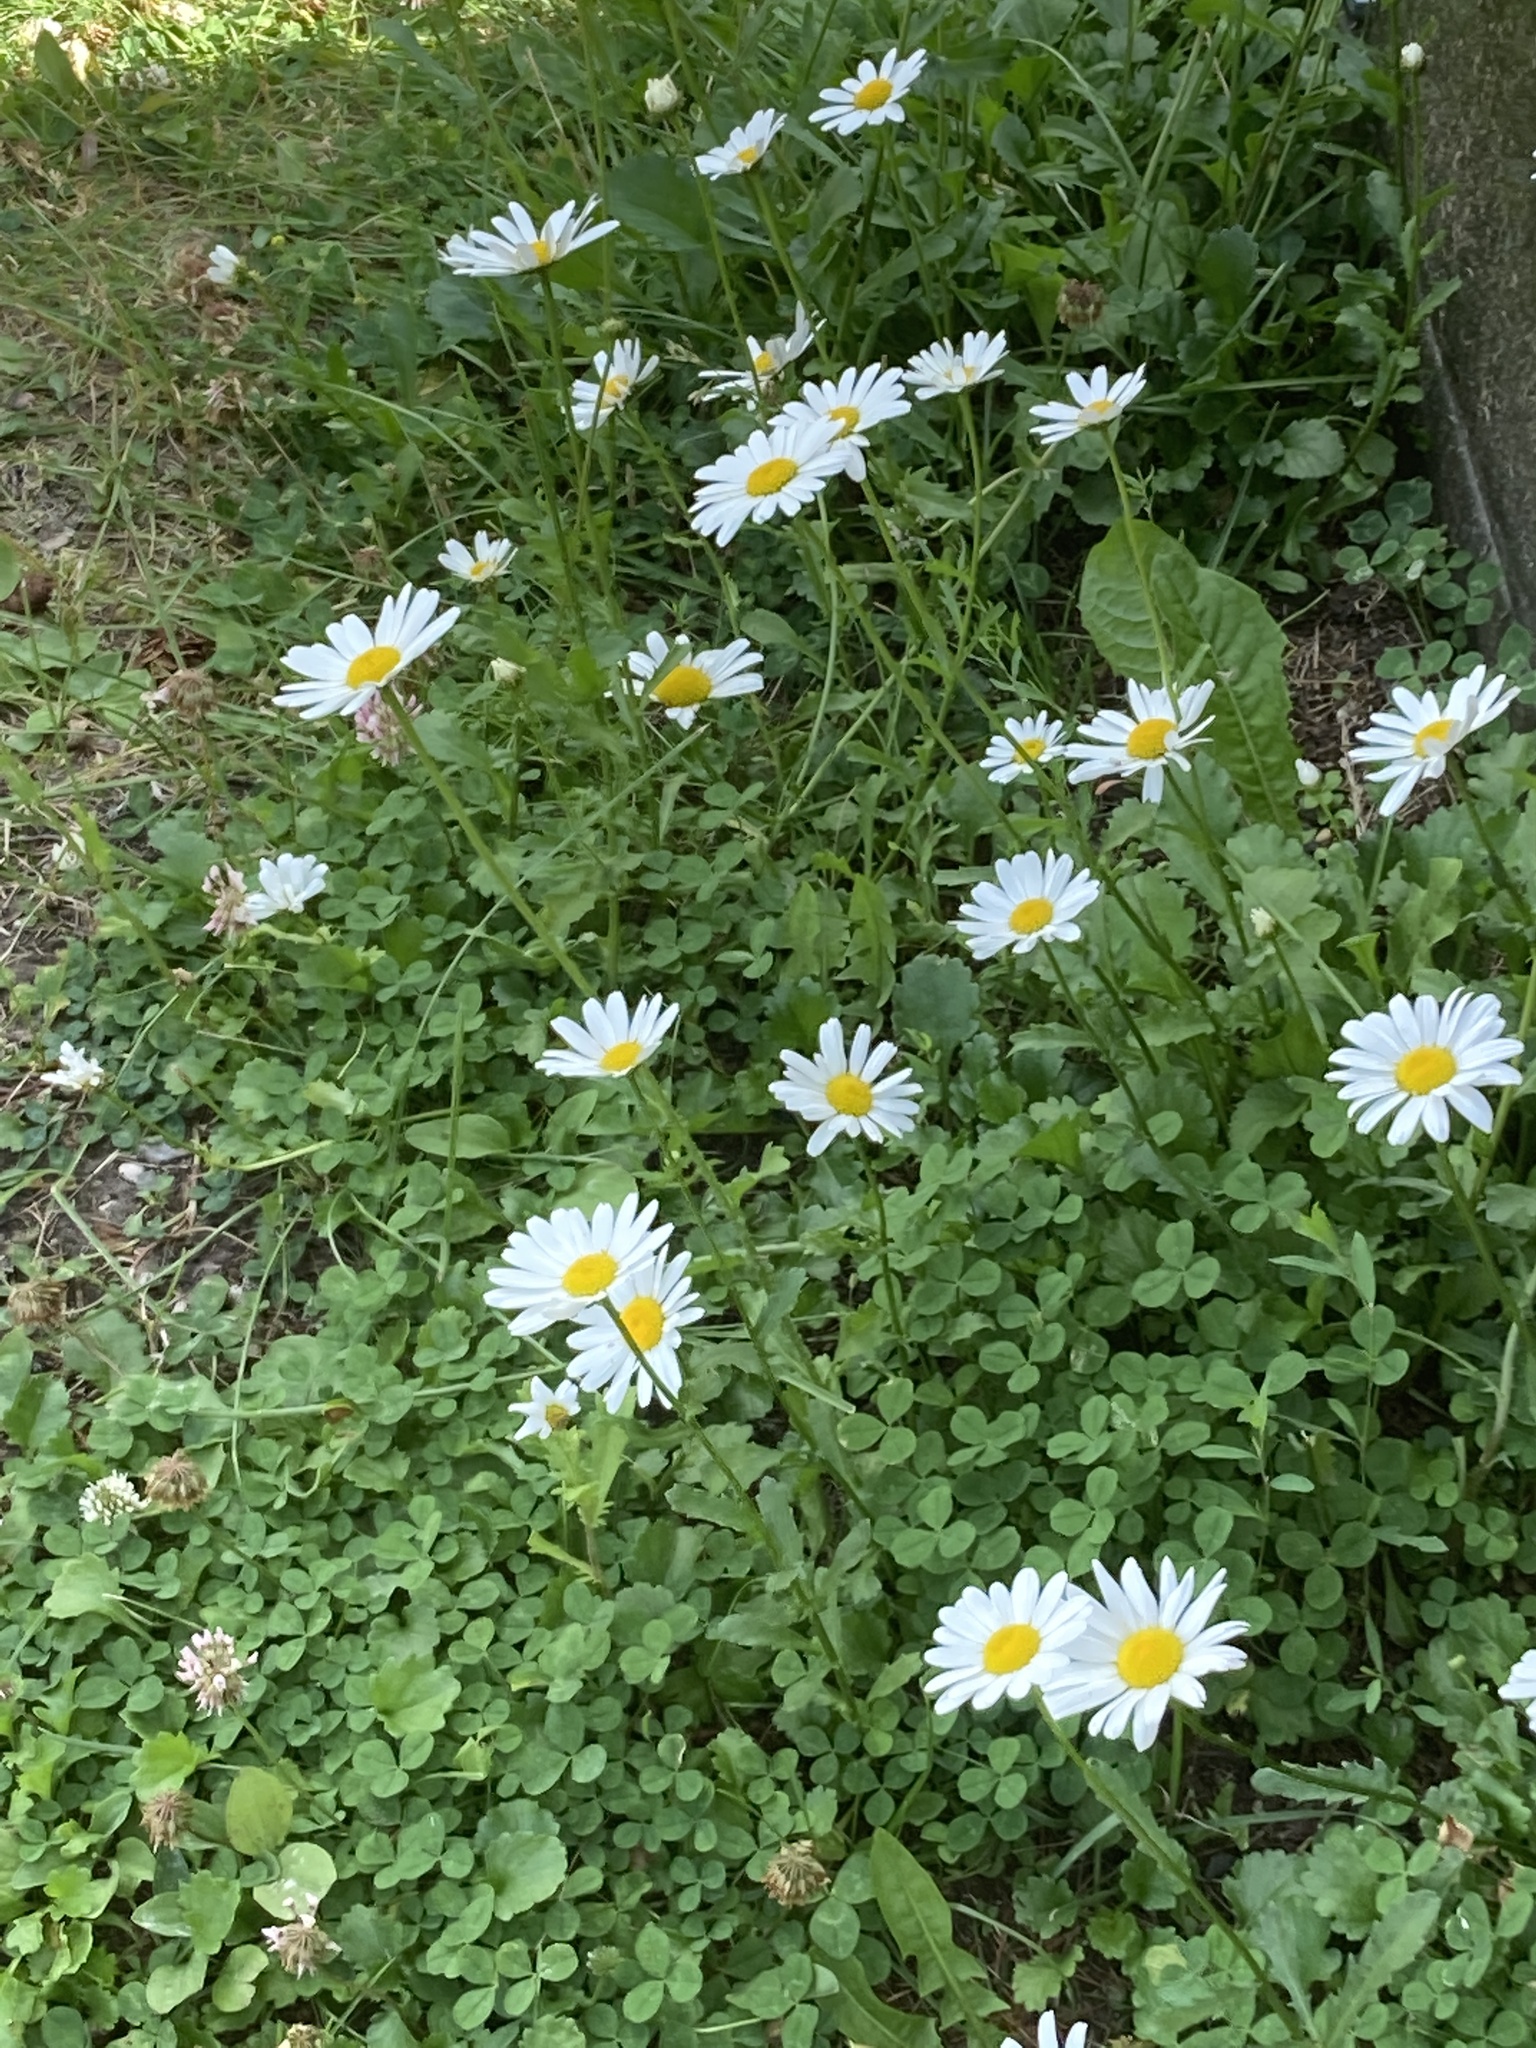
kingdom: Plantae
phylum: Tracheophyta
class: Magnoliopsida
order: Asterales
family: Asteraceae
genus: Leucanthemum
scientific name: Leucanthemum vulgare
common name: Oxeye daisy
